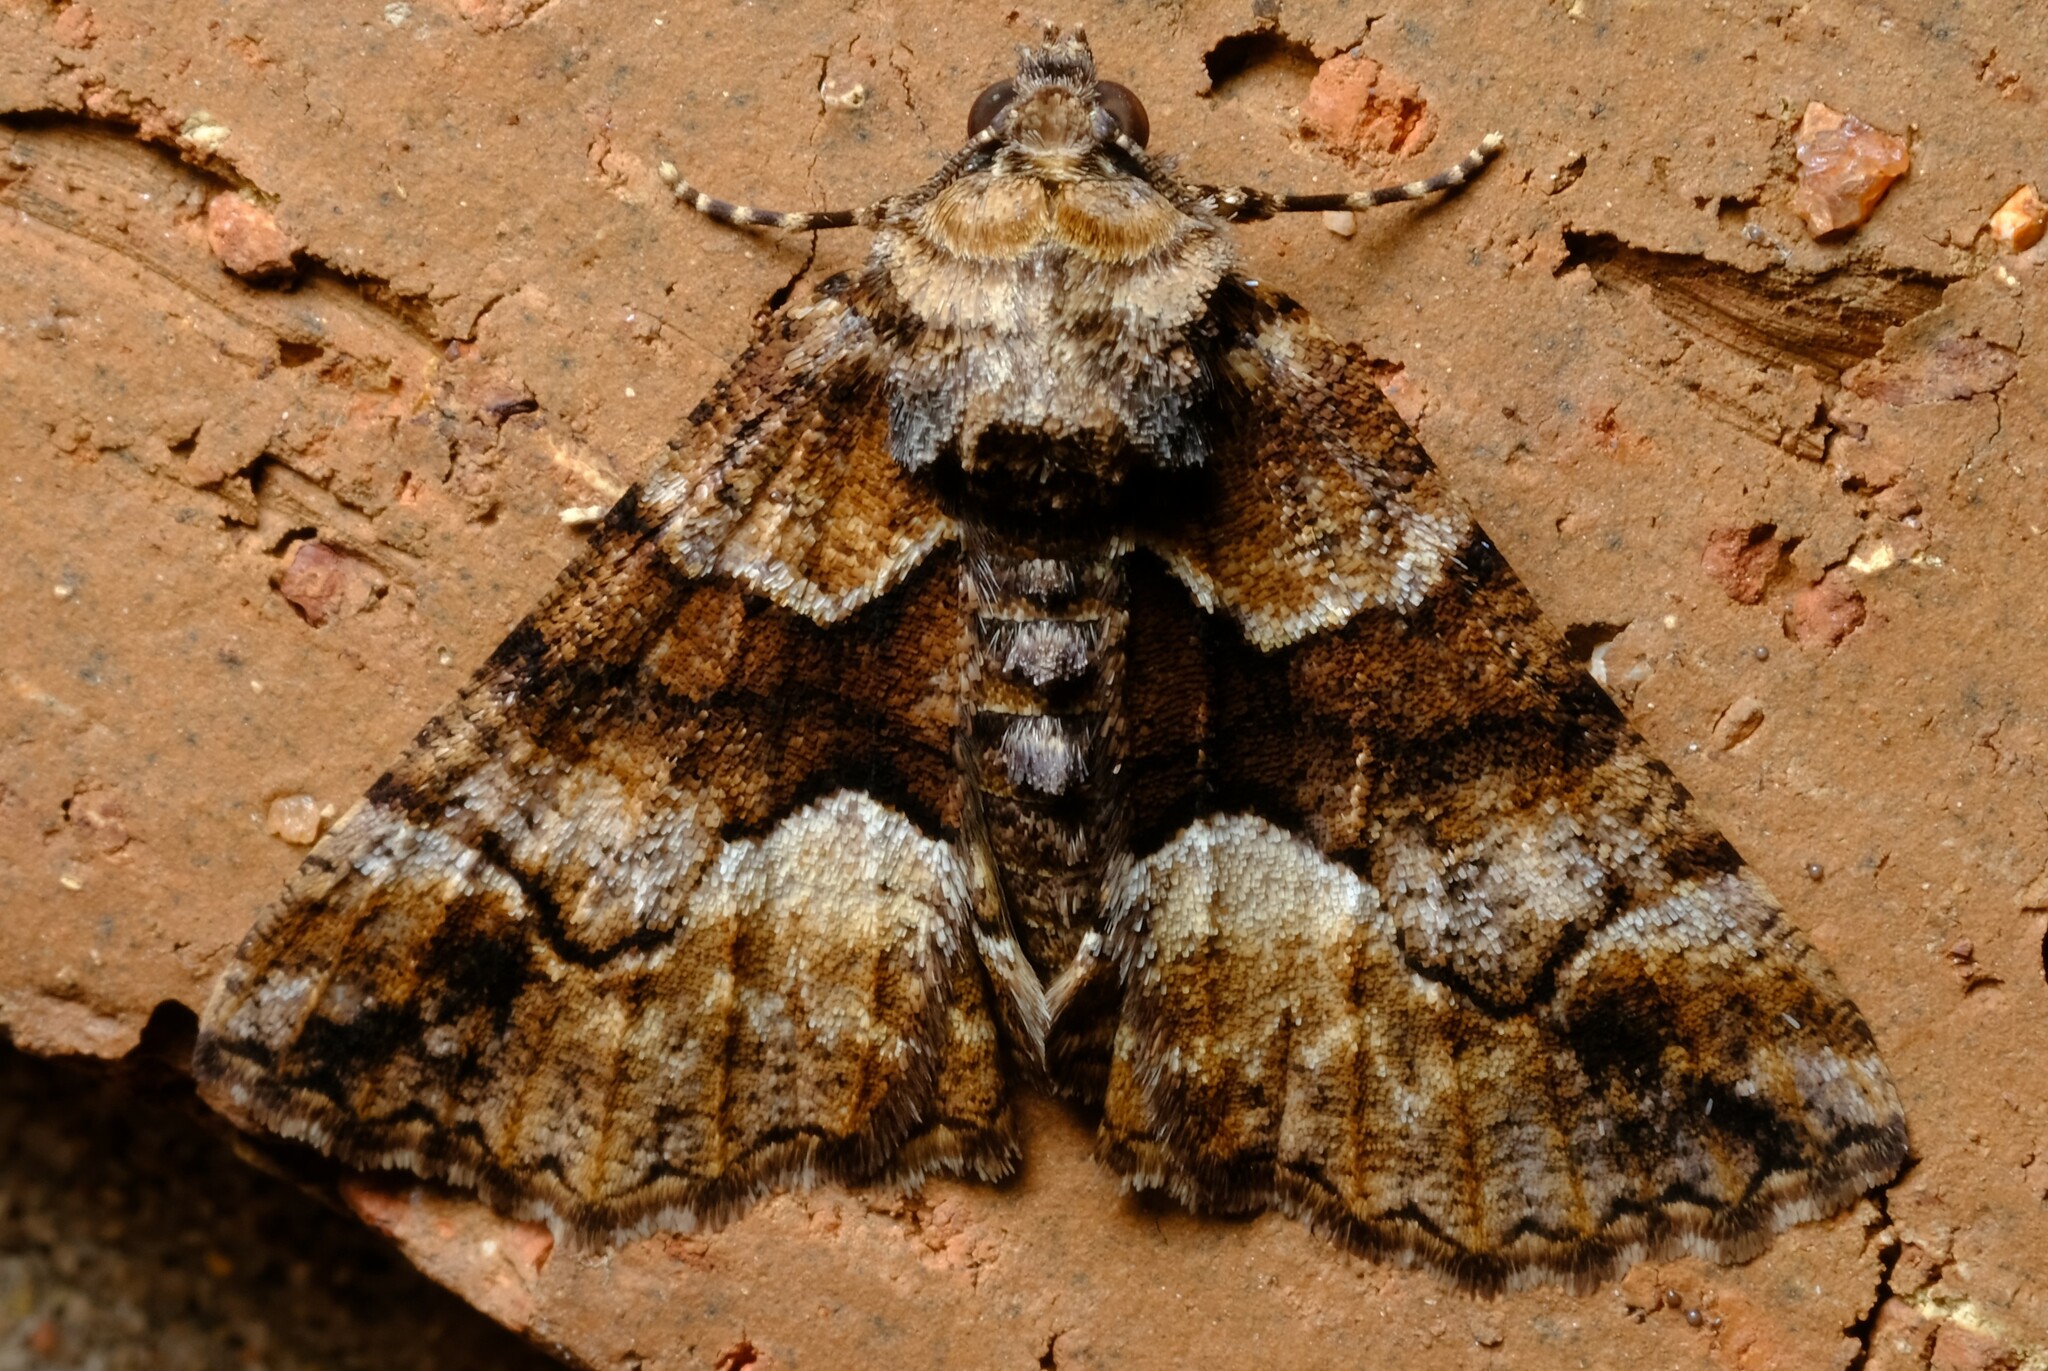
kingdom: Animalia
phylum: Arthropoda
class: Insecta
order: Lepidoptera
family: Geometridae
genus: Gastrina
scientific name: Gastrina cristaria
